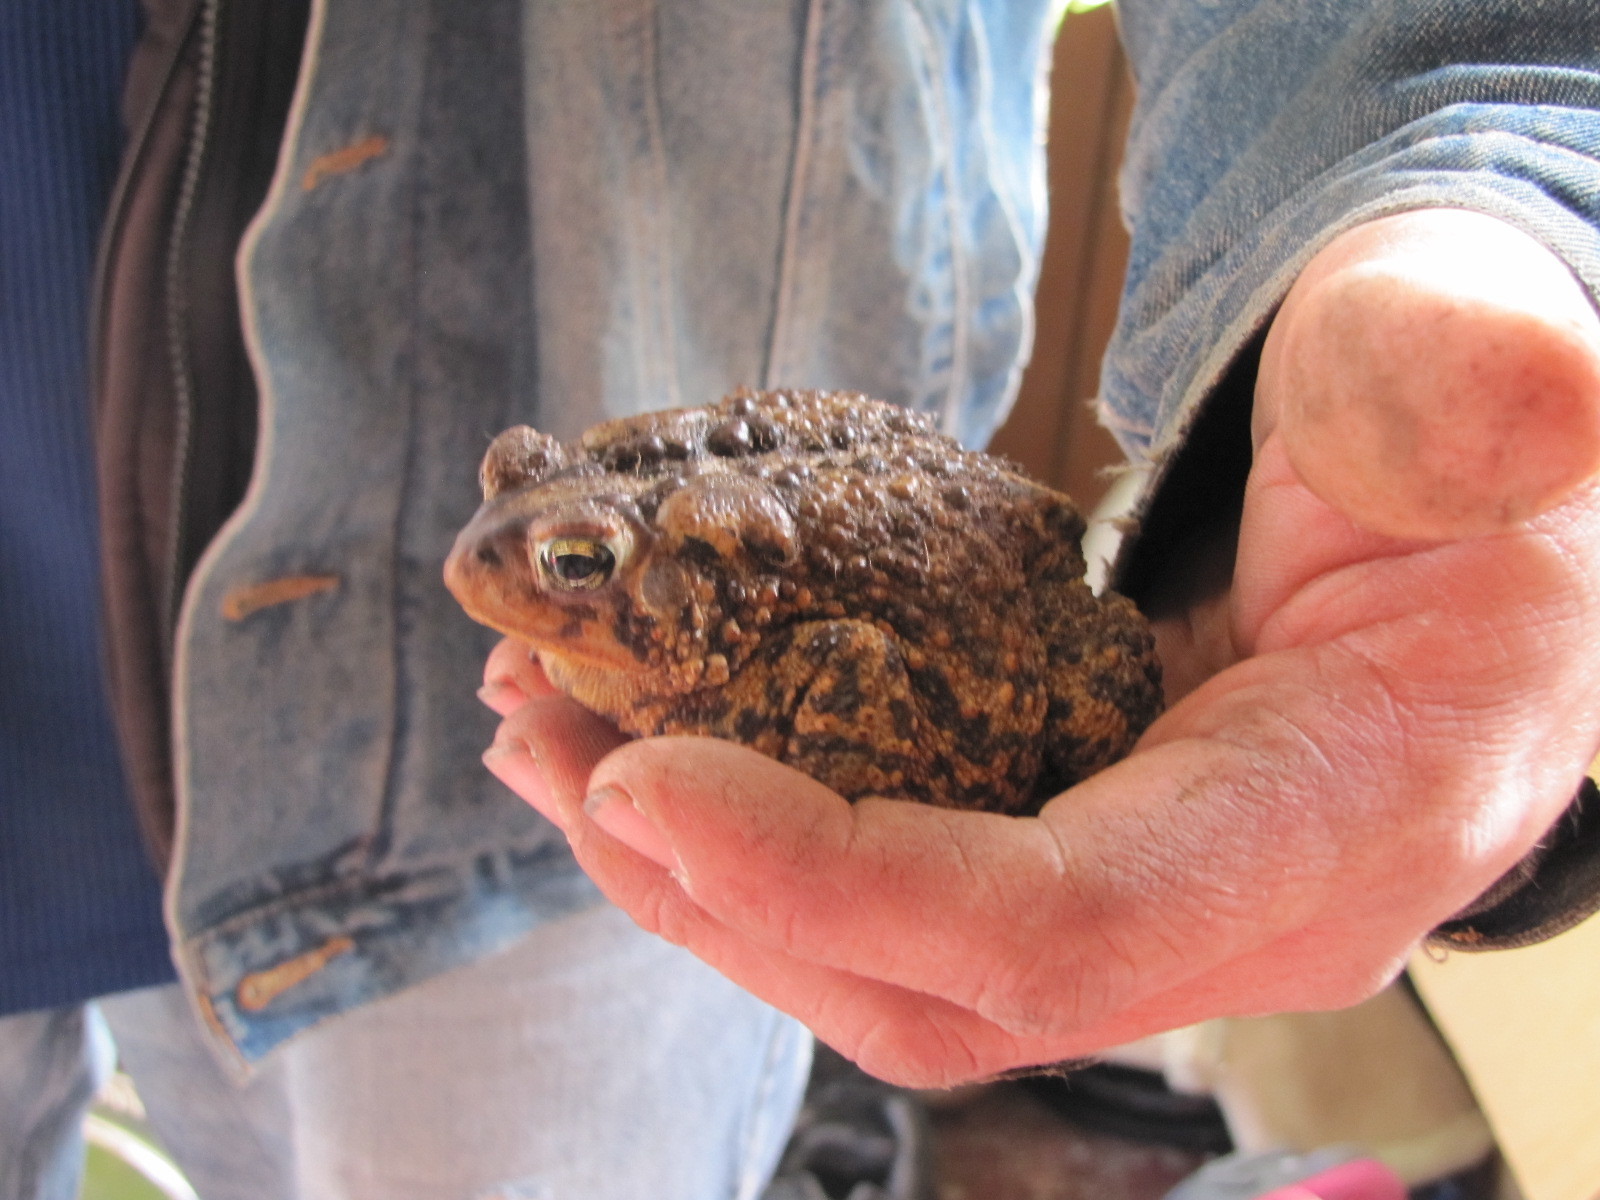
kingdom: Animalia
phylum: Chordata
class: Amphibia
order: Anura
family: Bufonidae
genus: Anaxyrus
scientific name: Anaxyrus americanus
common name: American toad
